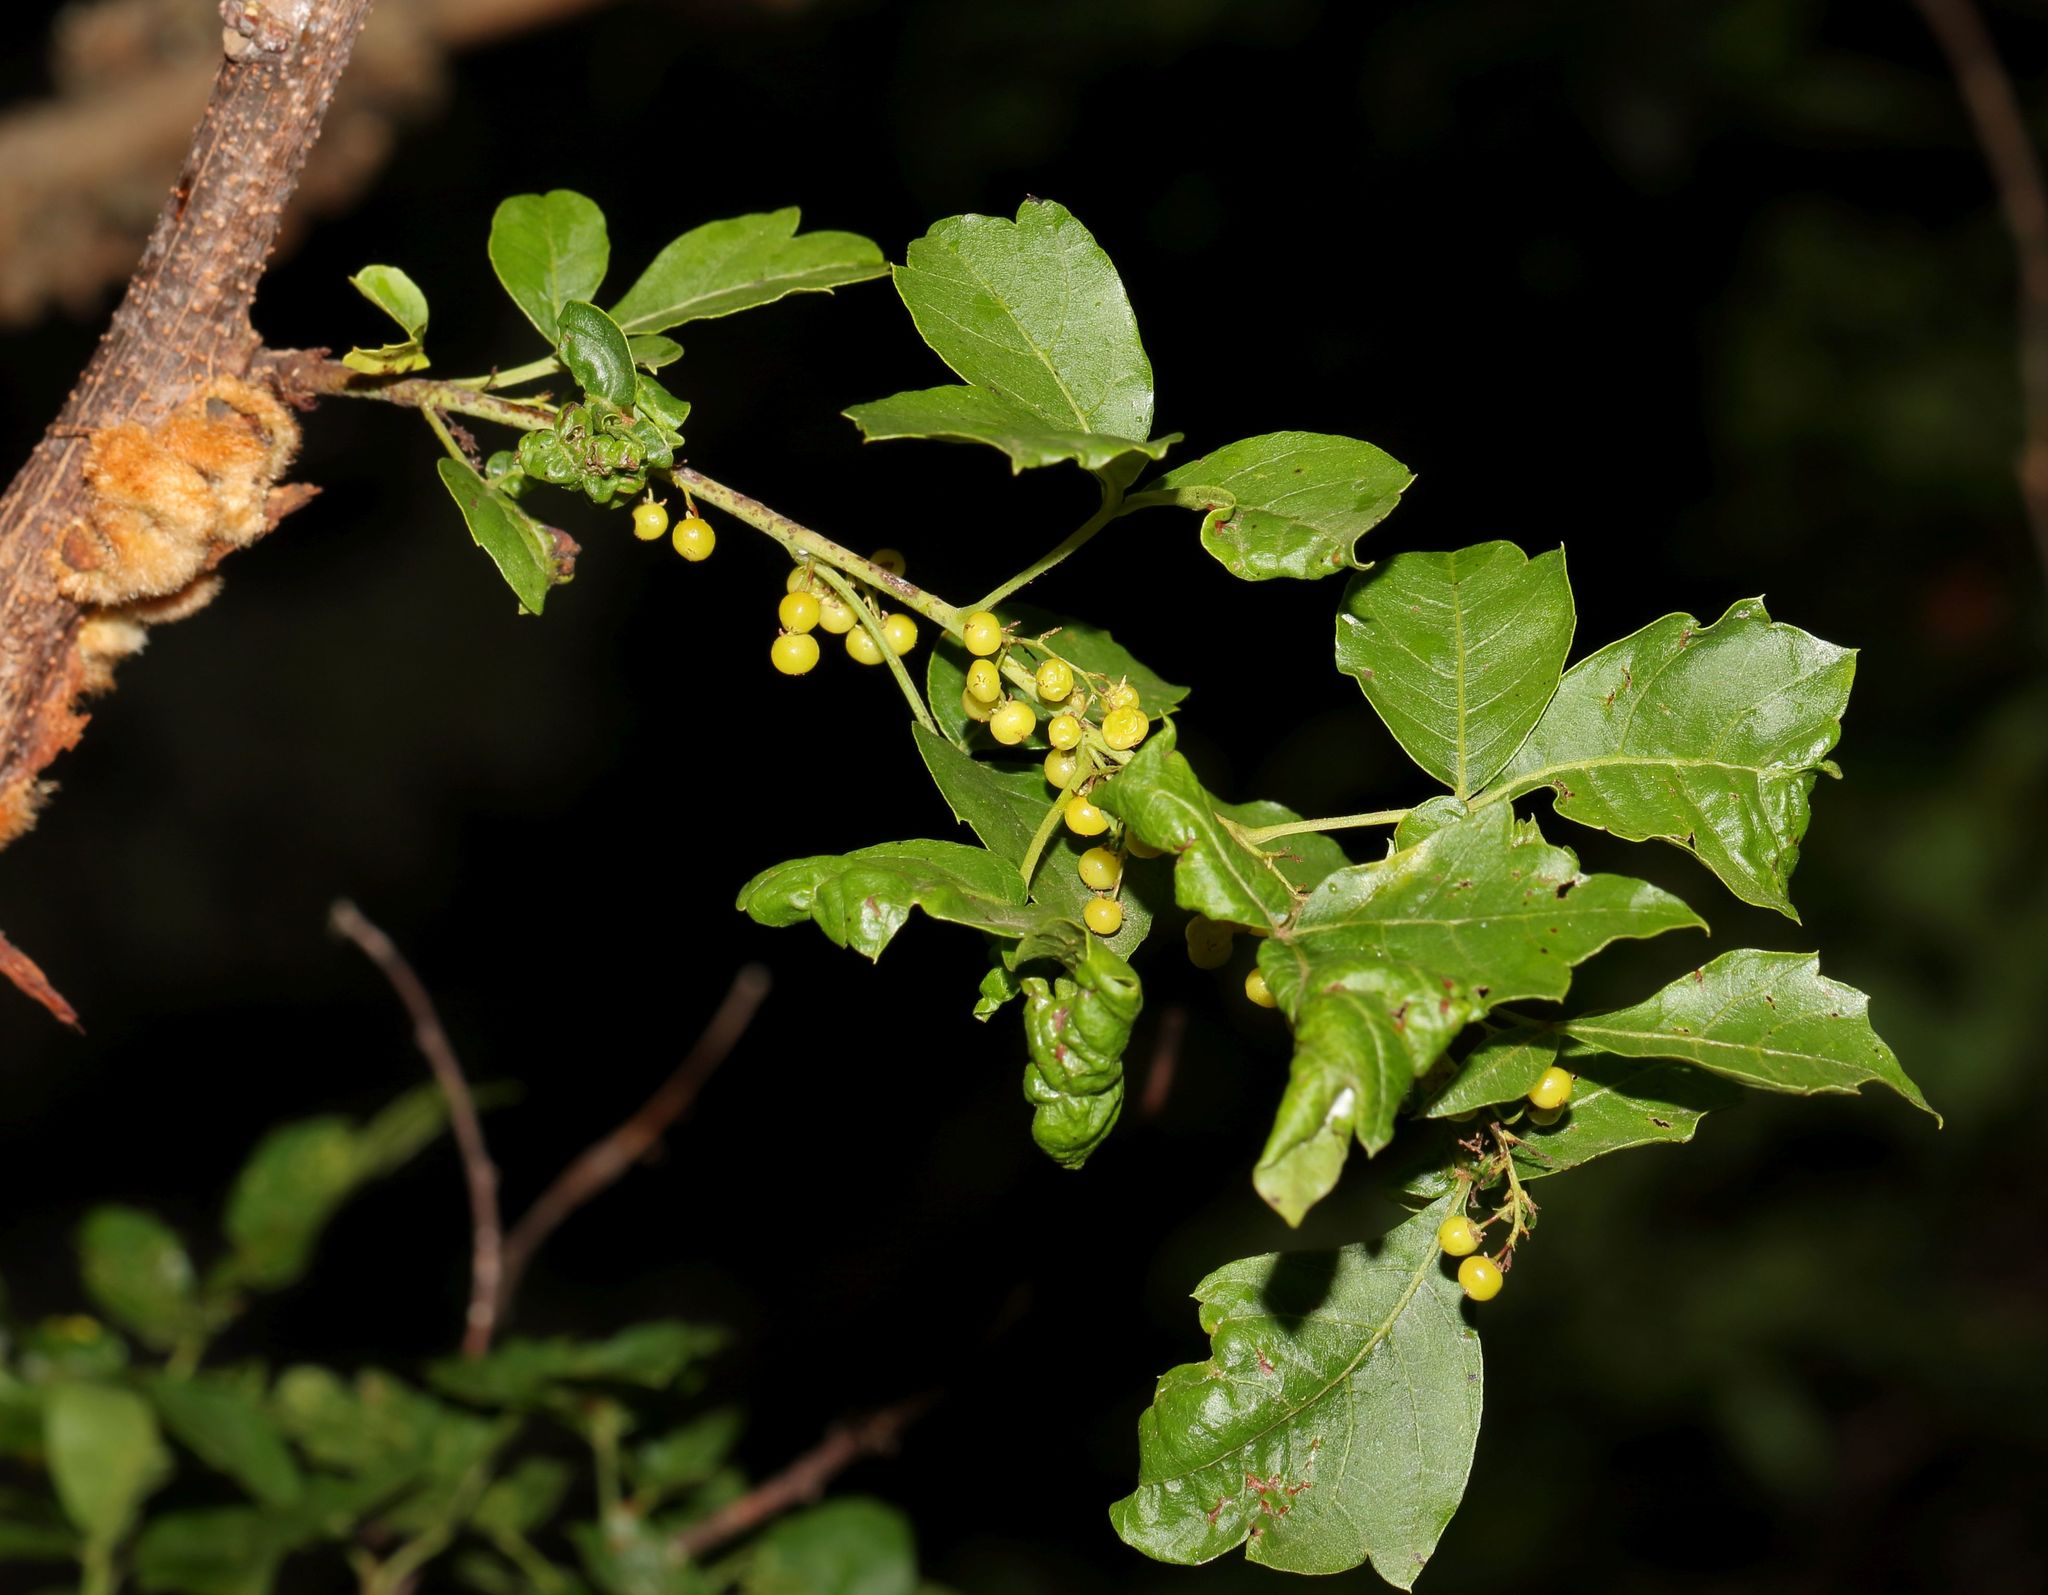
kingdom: Plantae
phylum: Tracheophyta
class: Magnoliopsida
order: Sapindales
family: Anacardiaceae
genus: Searsia
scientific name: Searsia dentata
